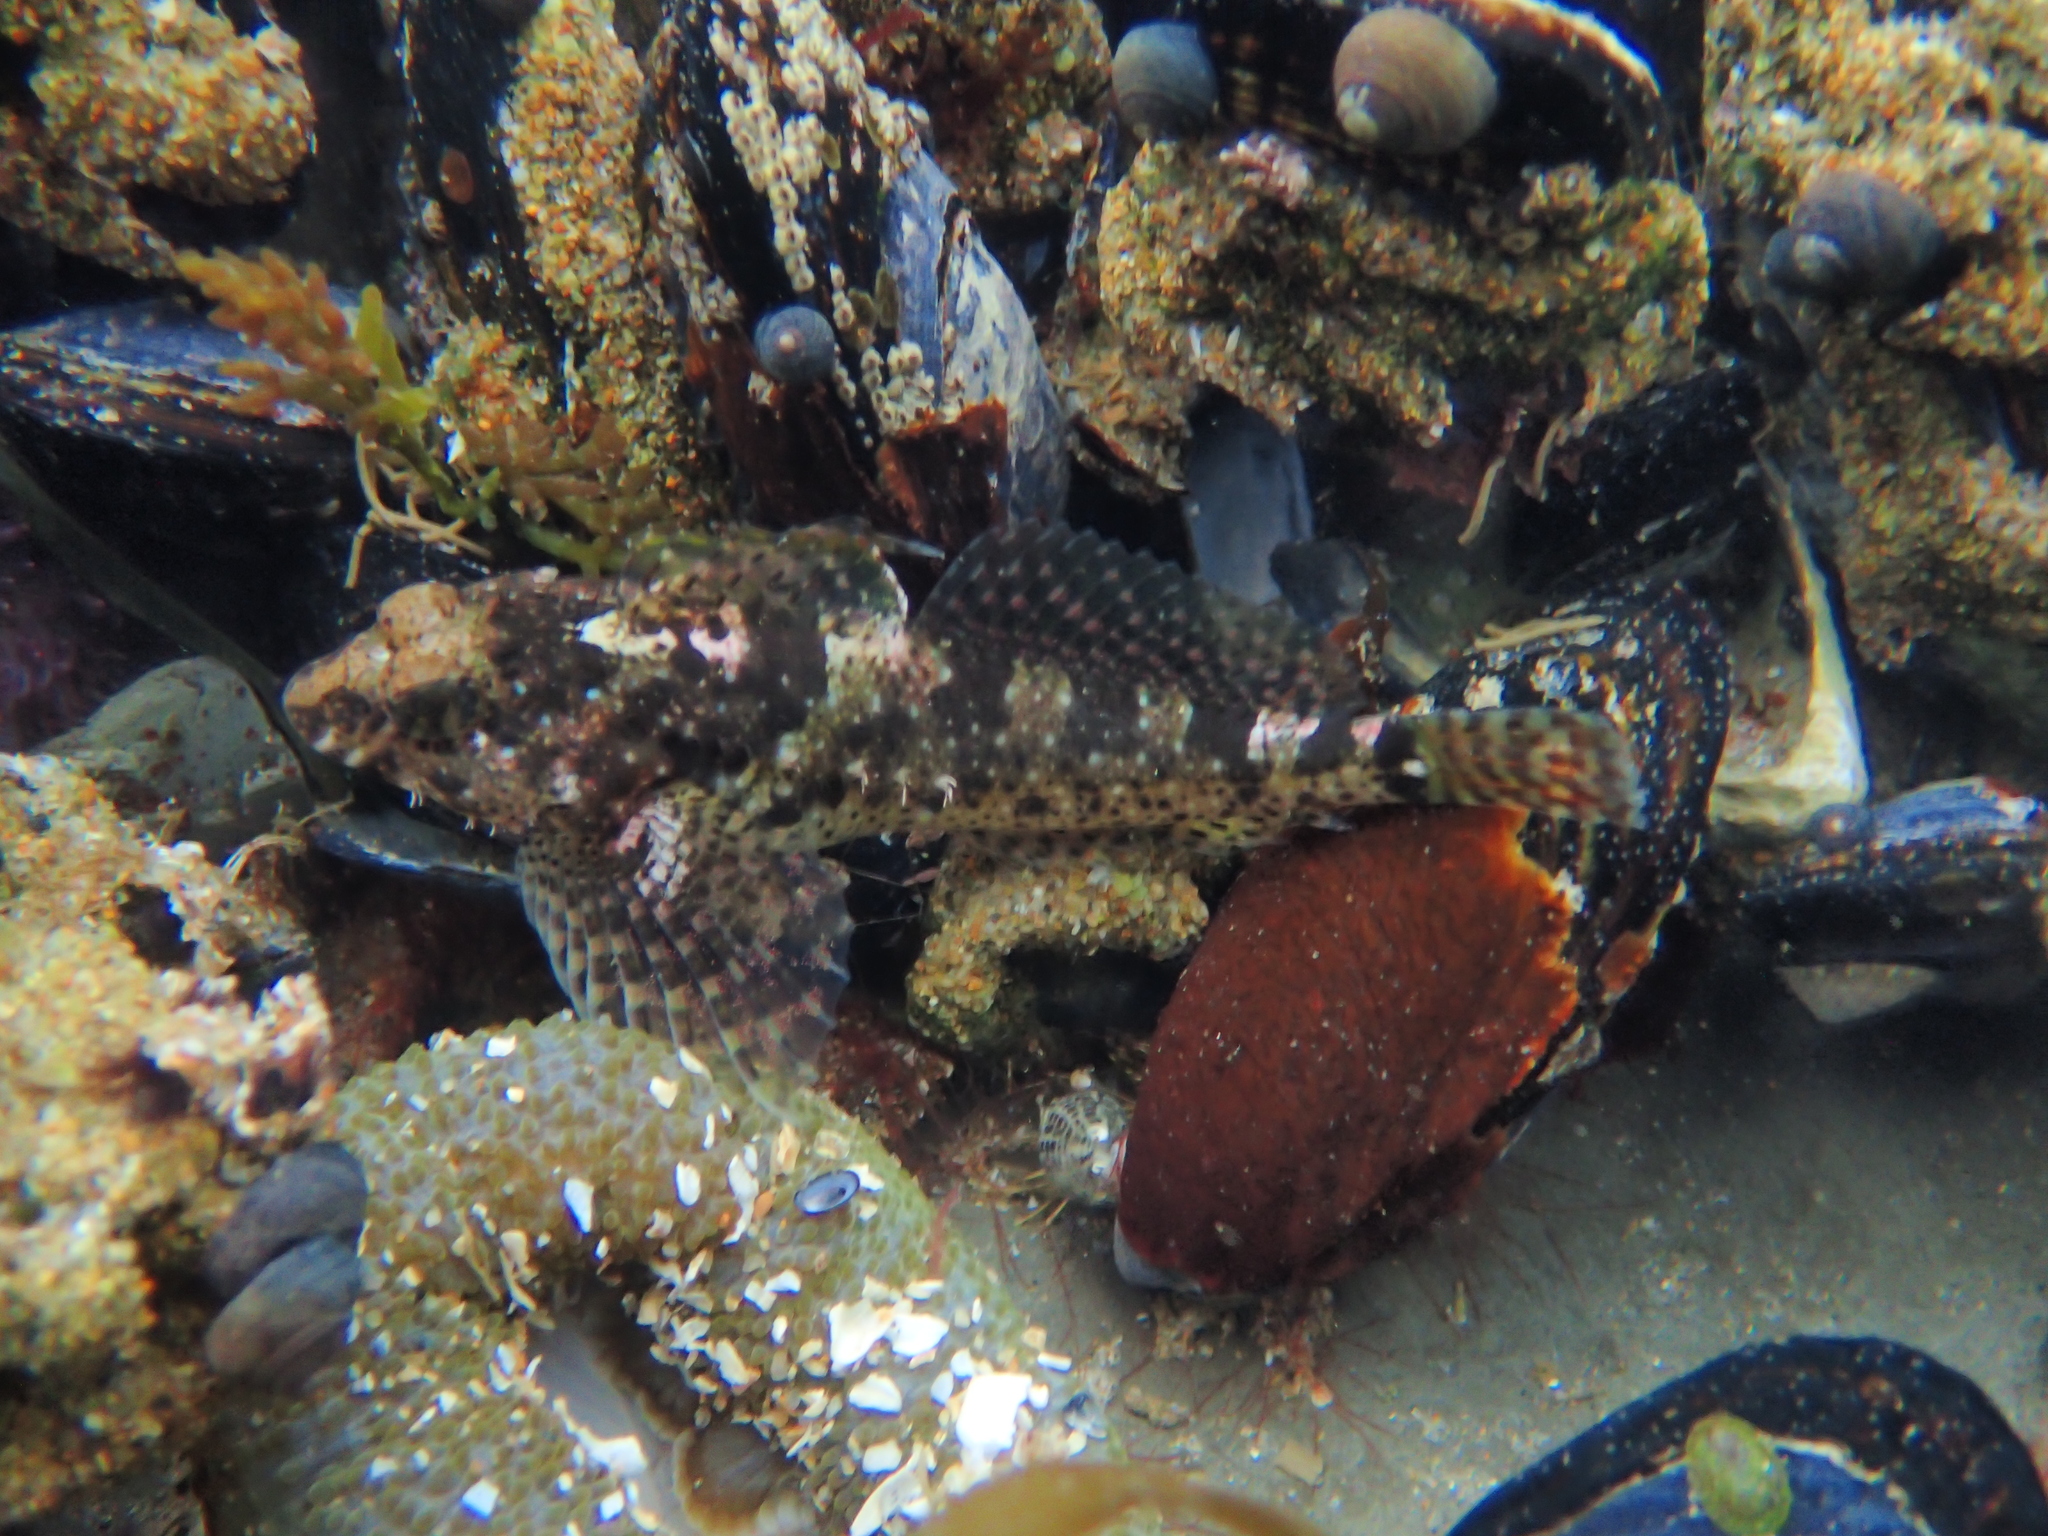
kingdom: Animalia
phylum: Chordata
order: Scorpaeniformes
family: Cottidae
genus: Clinocottus
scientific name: Clinocottus analis
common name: Woolly sculpin
